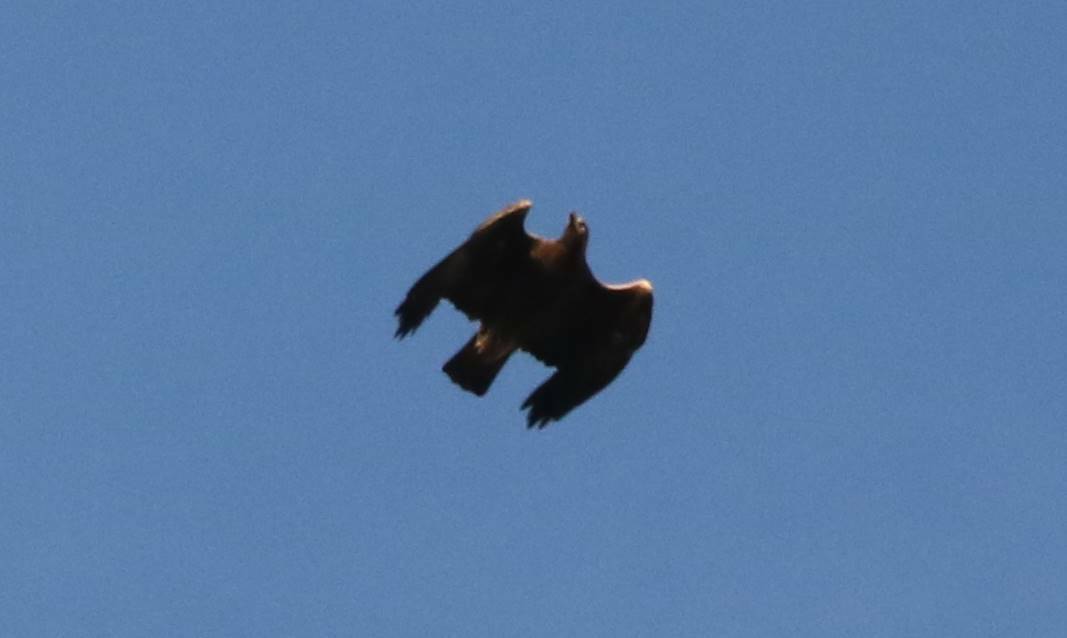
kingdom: Animalia
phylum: Chordata
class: Aves
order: Accipitriformes
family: Accipitridae
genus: Aquila
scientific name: Aquila chrysaetos
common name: Golden eagle
